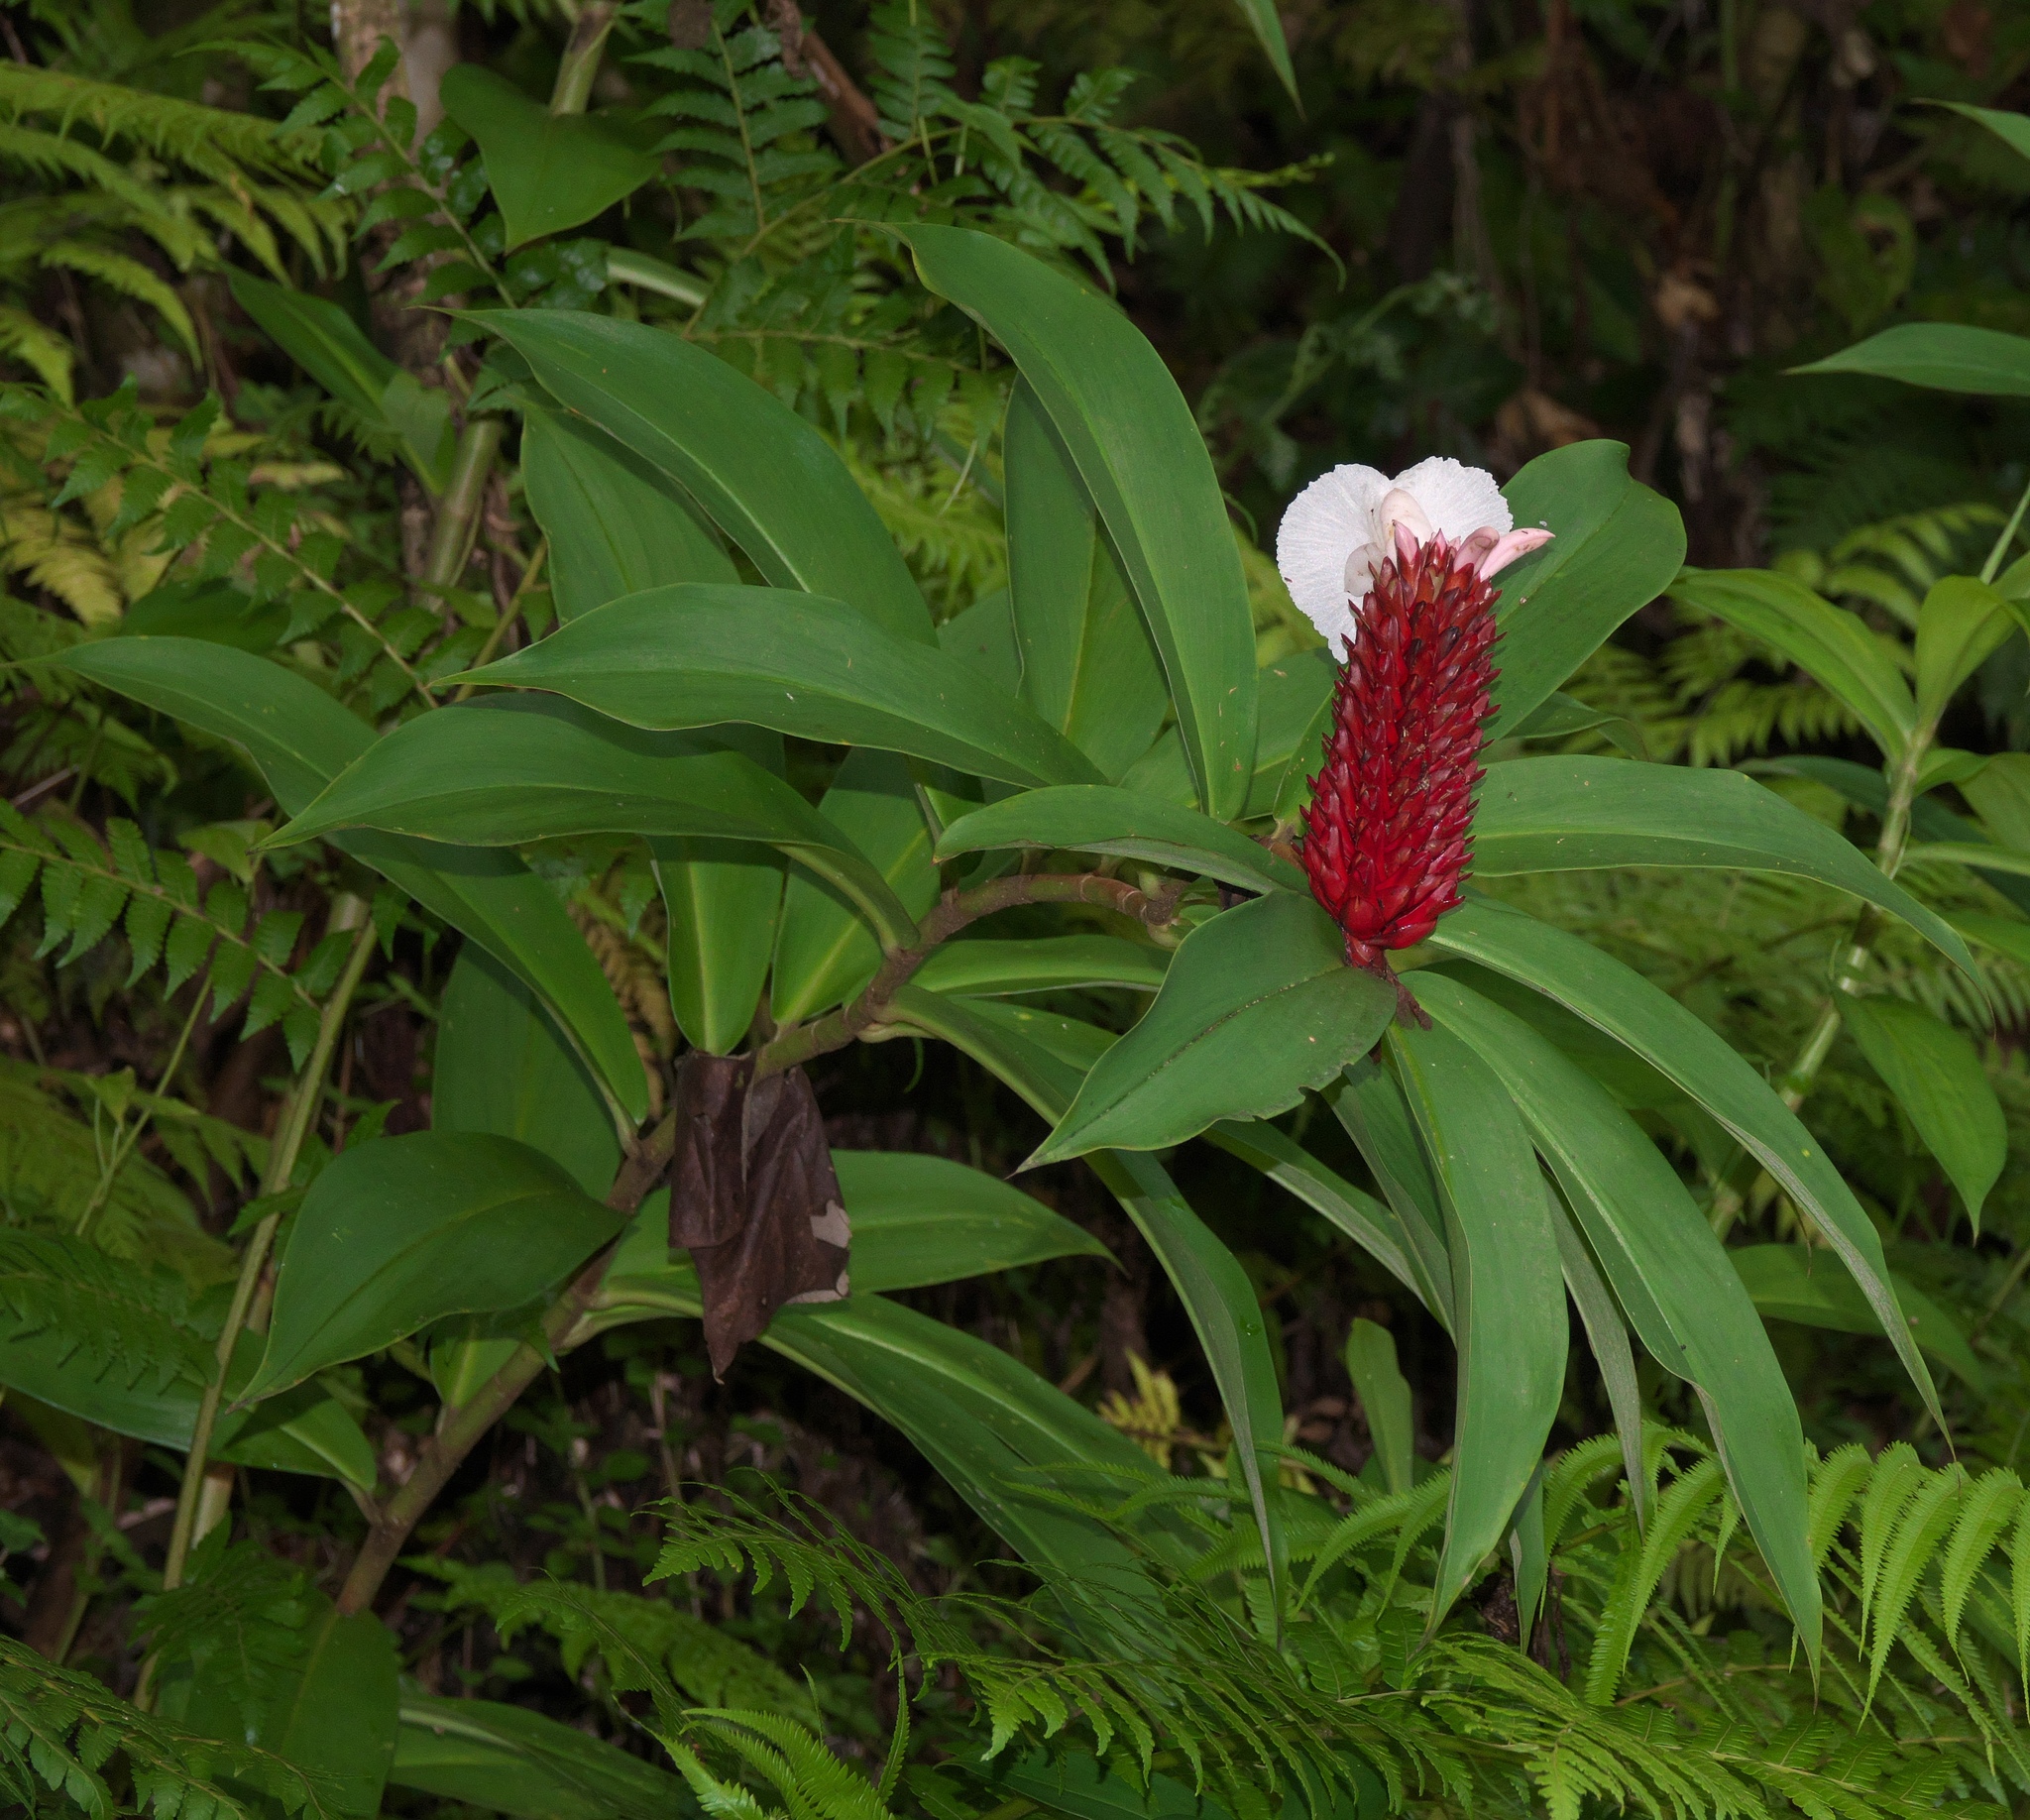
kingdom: Plantae
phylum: Tracheophyta
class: Liliopsida
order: Zingiberales
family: Costaceae
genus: Hellenia
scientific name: Hellenia speciosa
